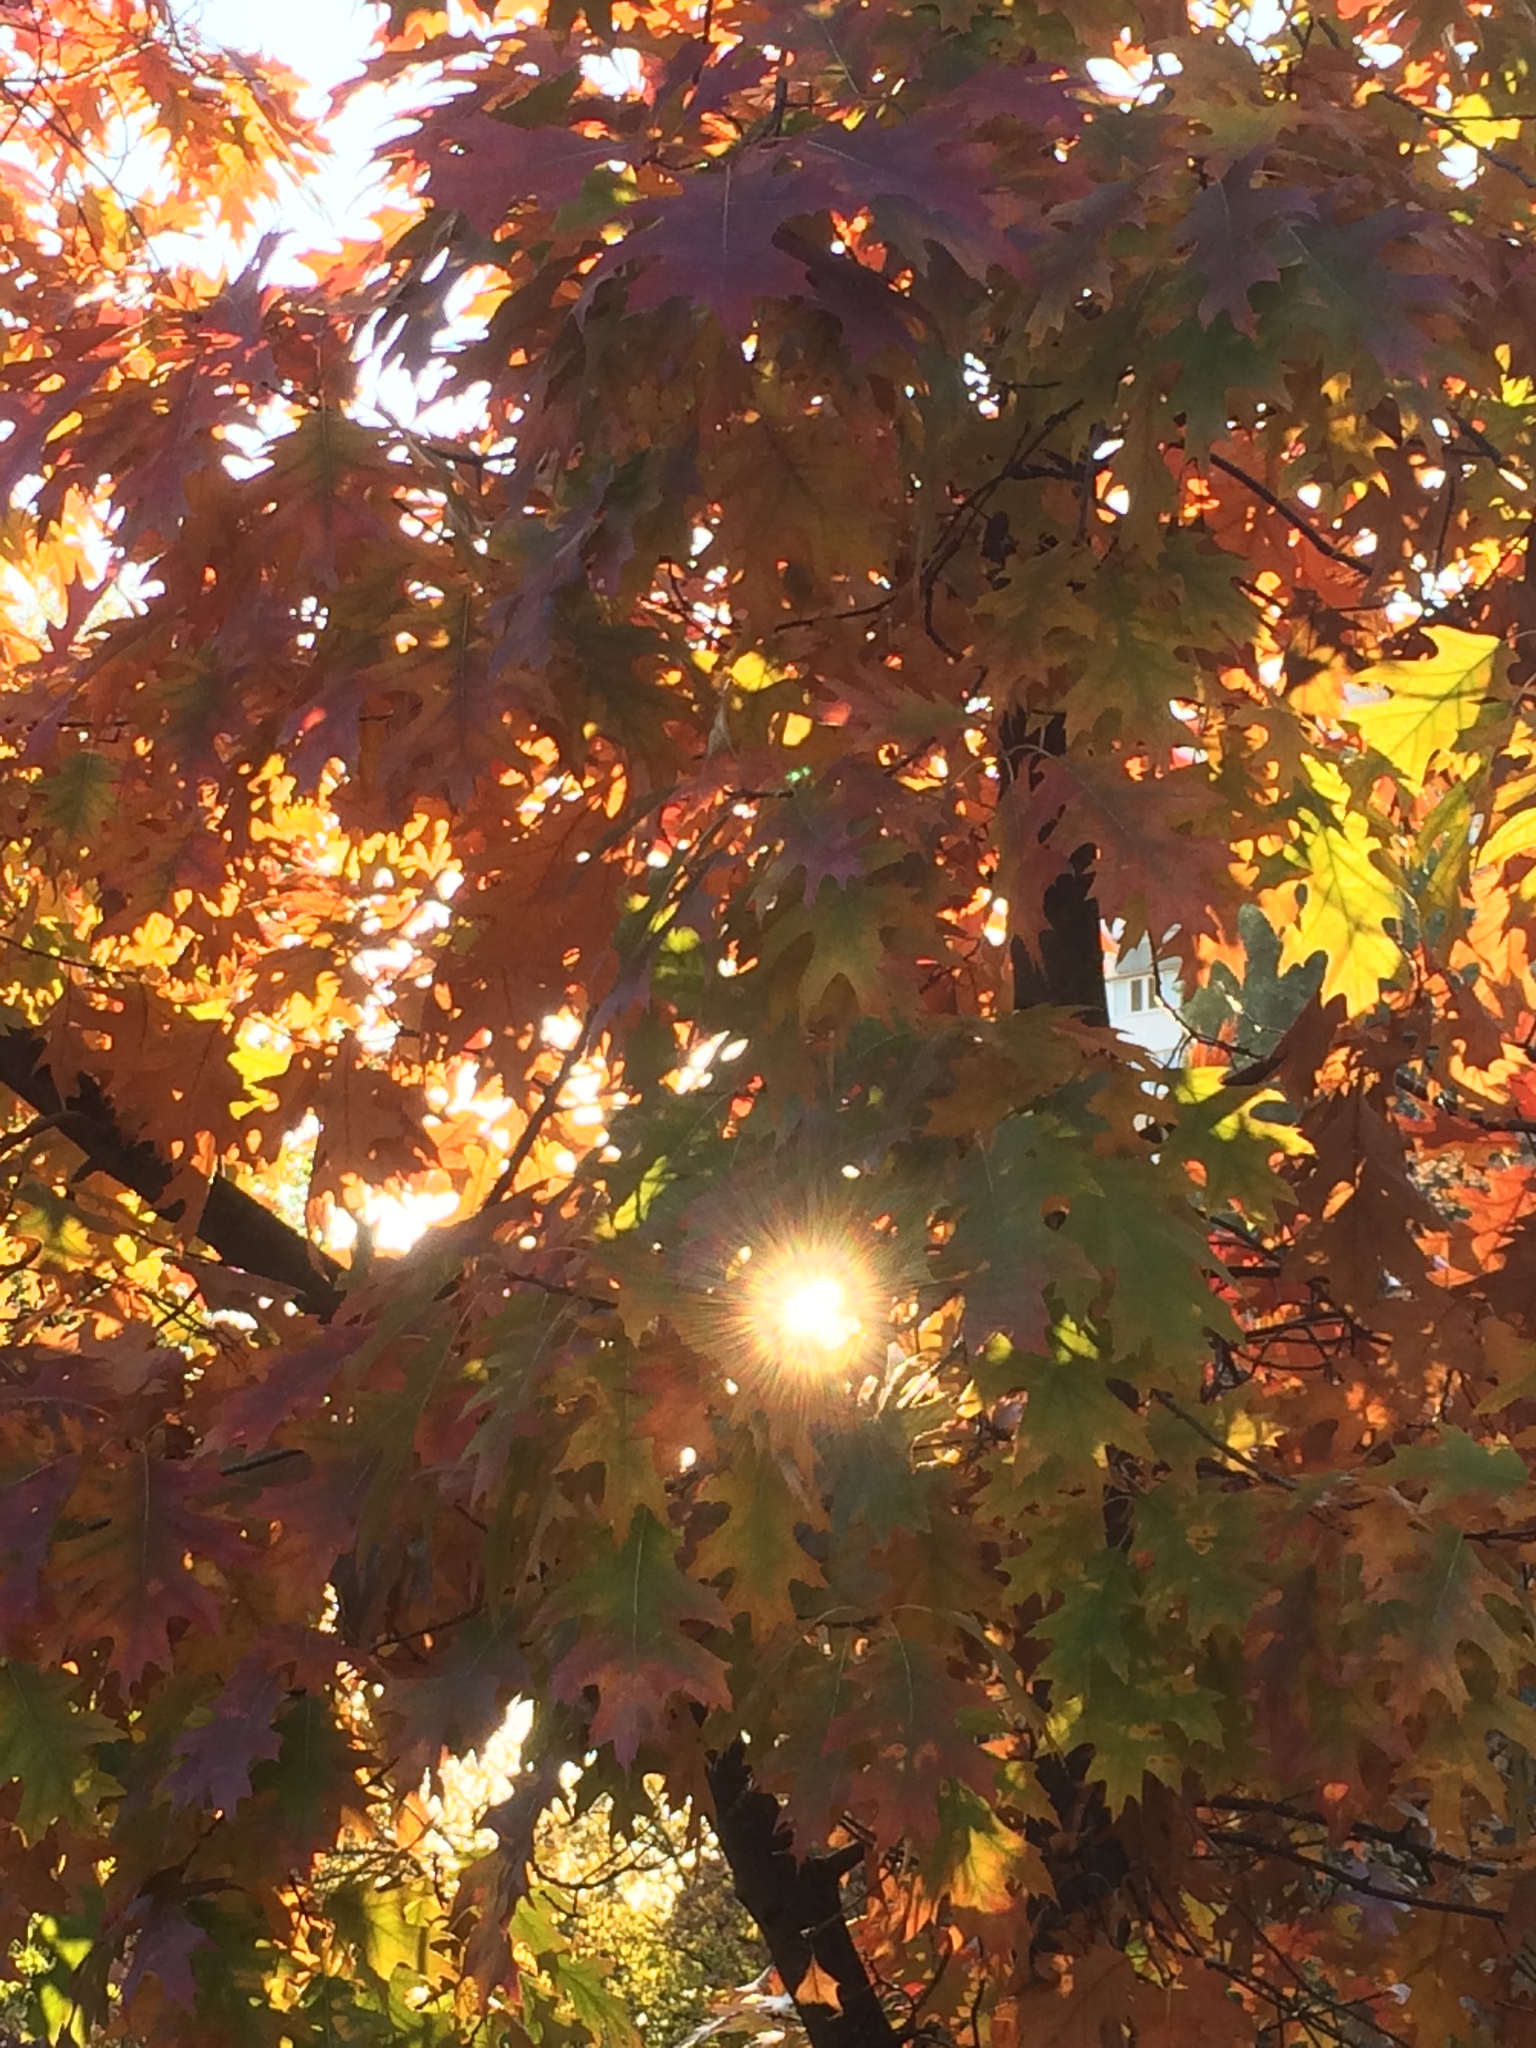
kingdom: Plantae
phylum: Tracheophyta
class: Magnoliopsida
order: Fagales
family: Fagaceae
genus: Quercus
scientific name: Quercus rubra
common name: Red oak
